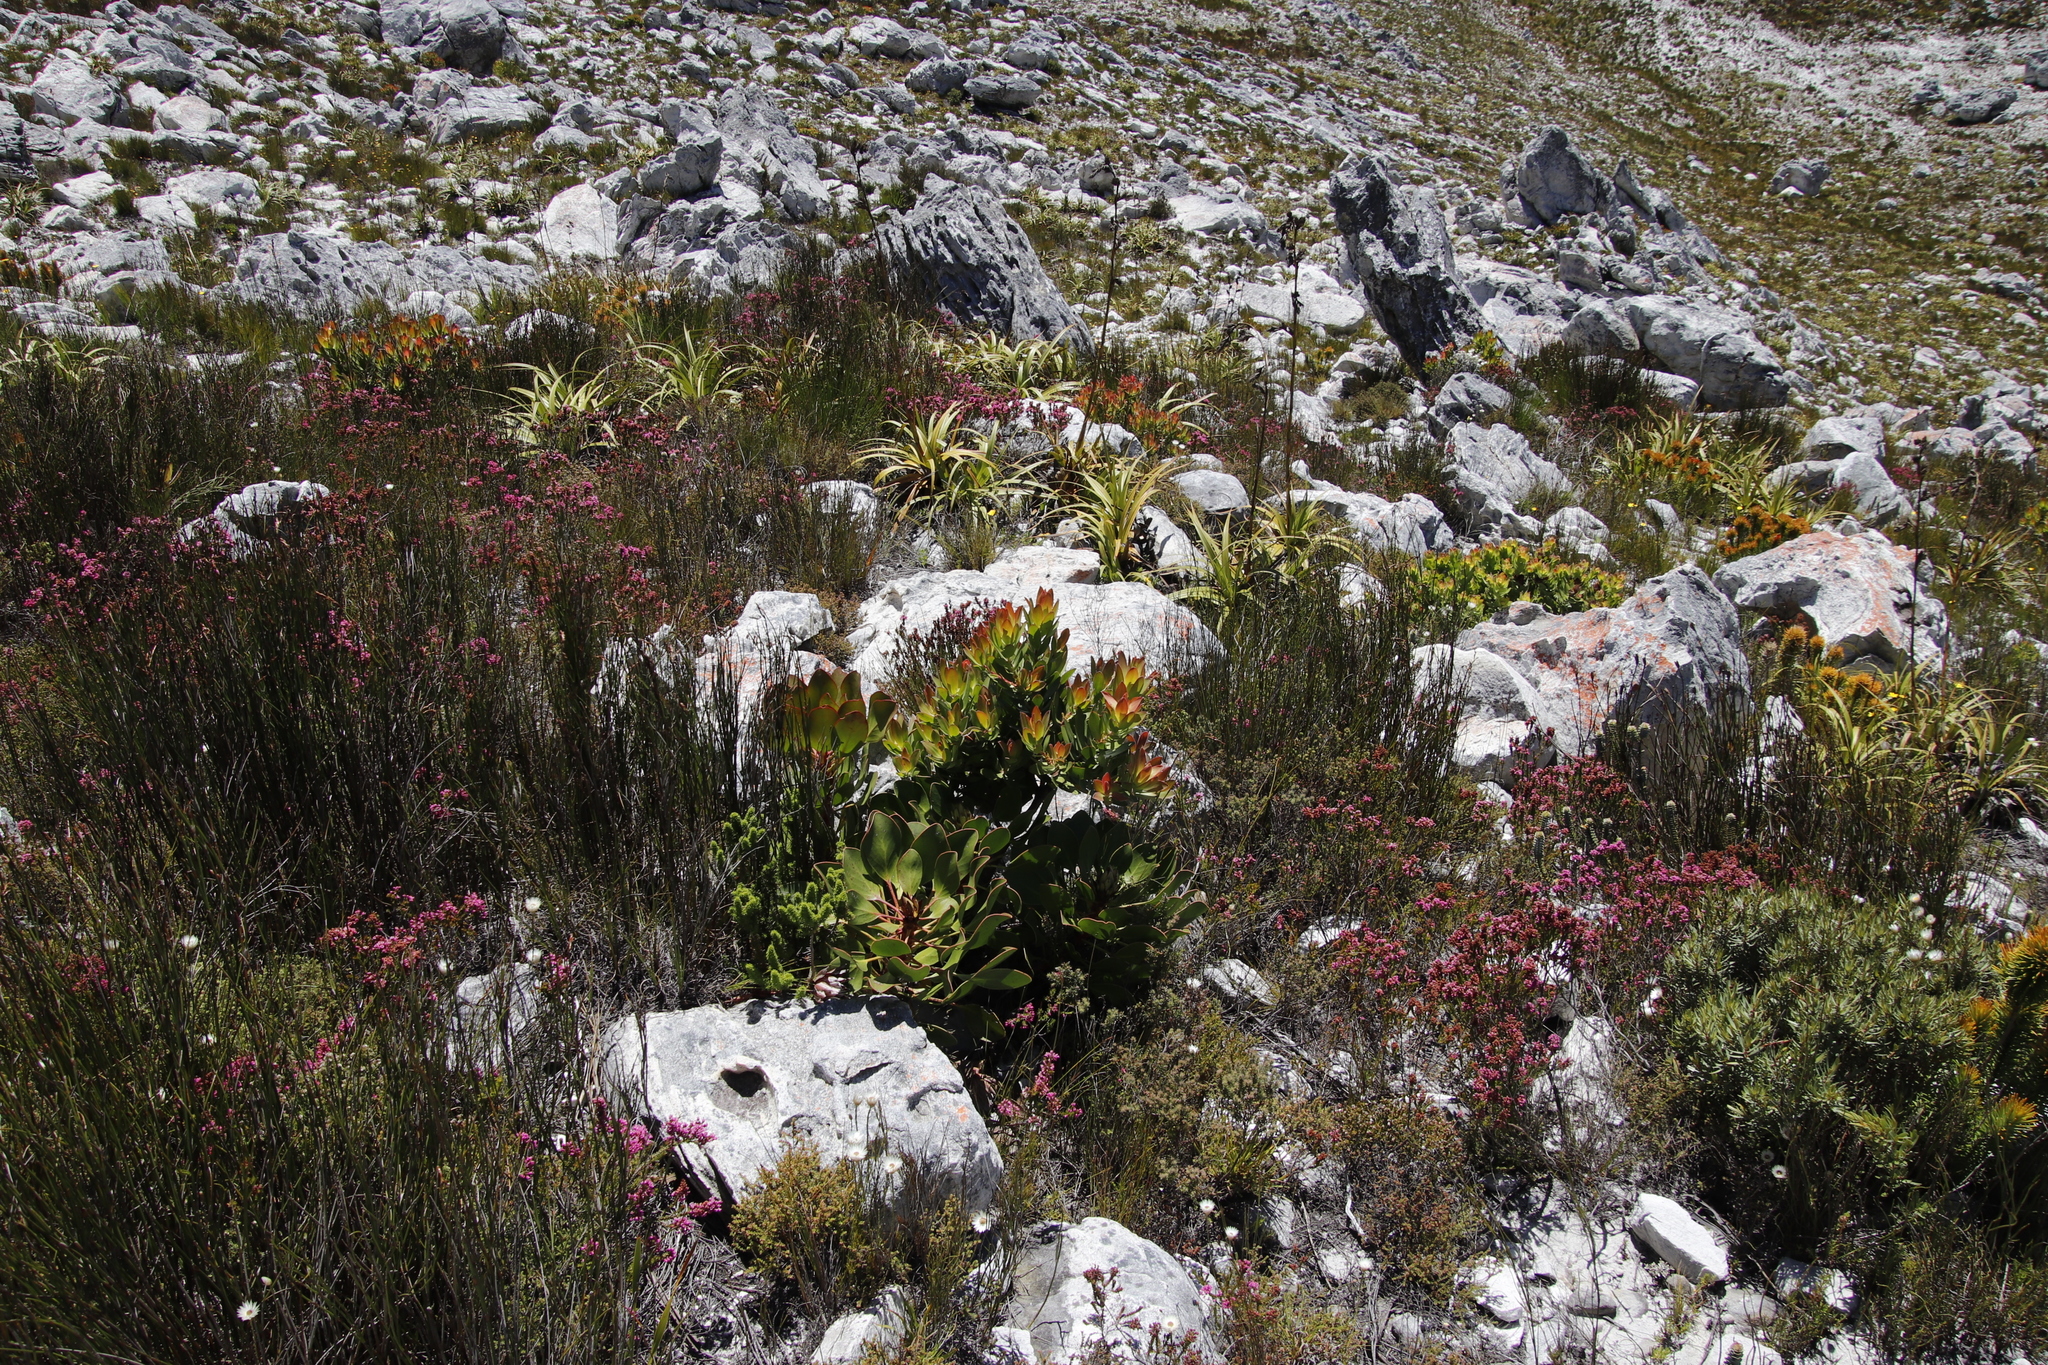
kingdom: Plantae
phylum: Tracheophyta
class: Magnoliopsida
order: Proteales
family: Proteaceae
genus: Protea
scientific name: Protea cynaroides
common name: King protea
